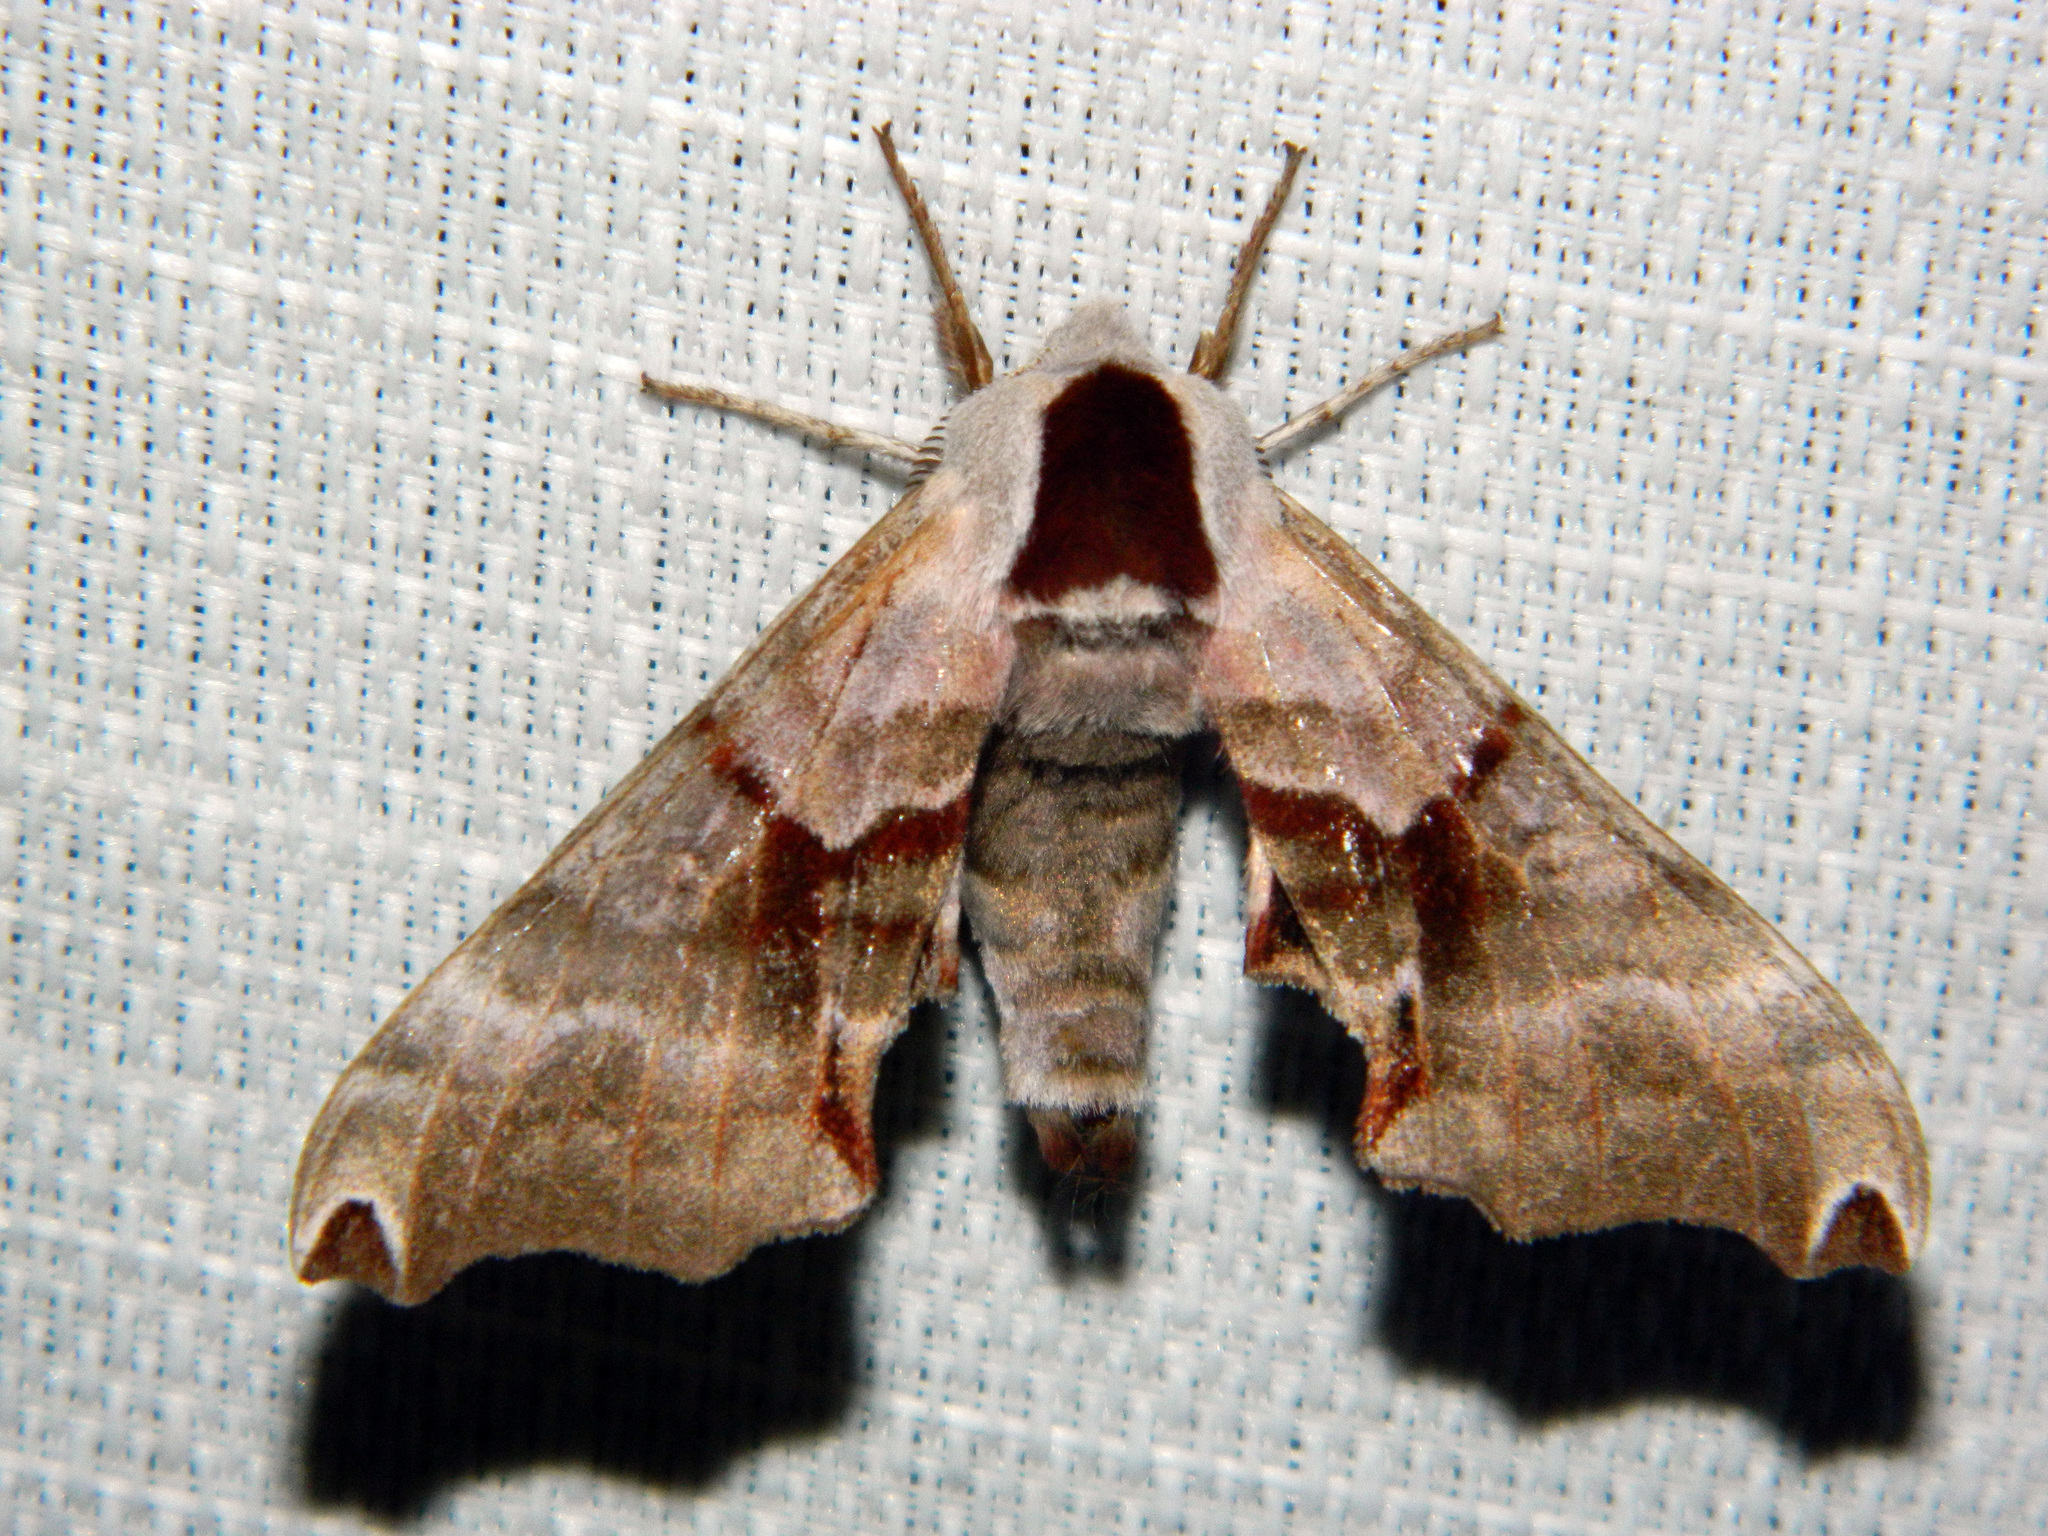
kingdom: Animalia
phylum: Arthropoda
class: Insecta
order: Lepidoptera
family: Sphingidae
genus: Smerinthus
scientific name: Smerinthus jamaicensis
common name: Twin spotted sphinx
